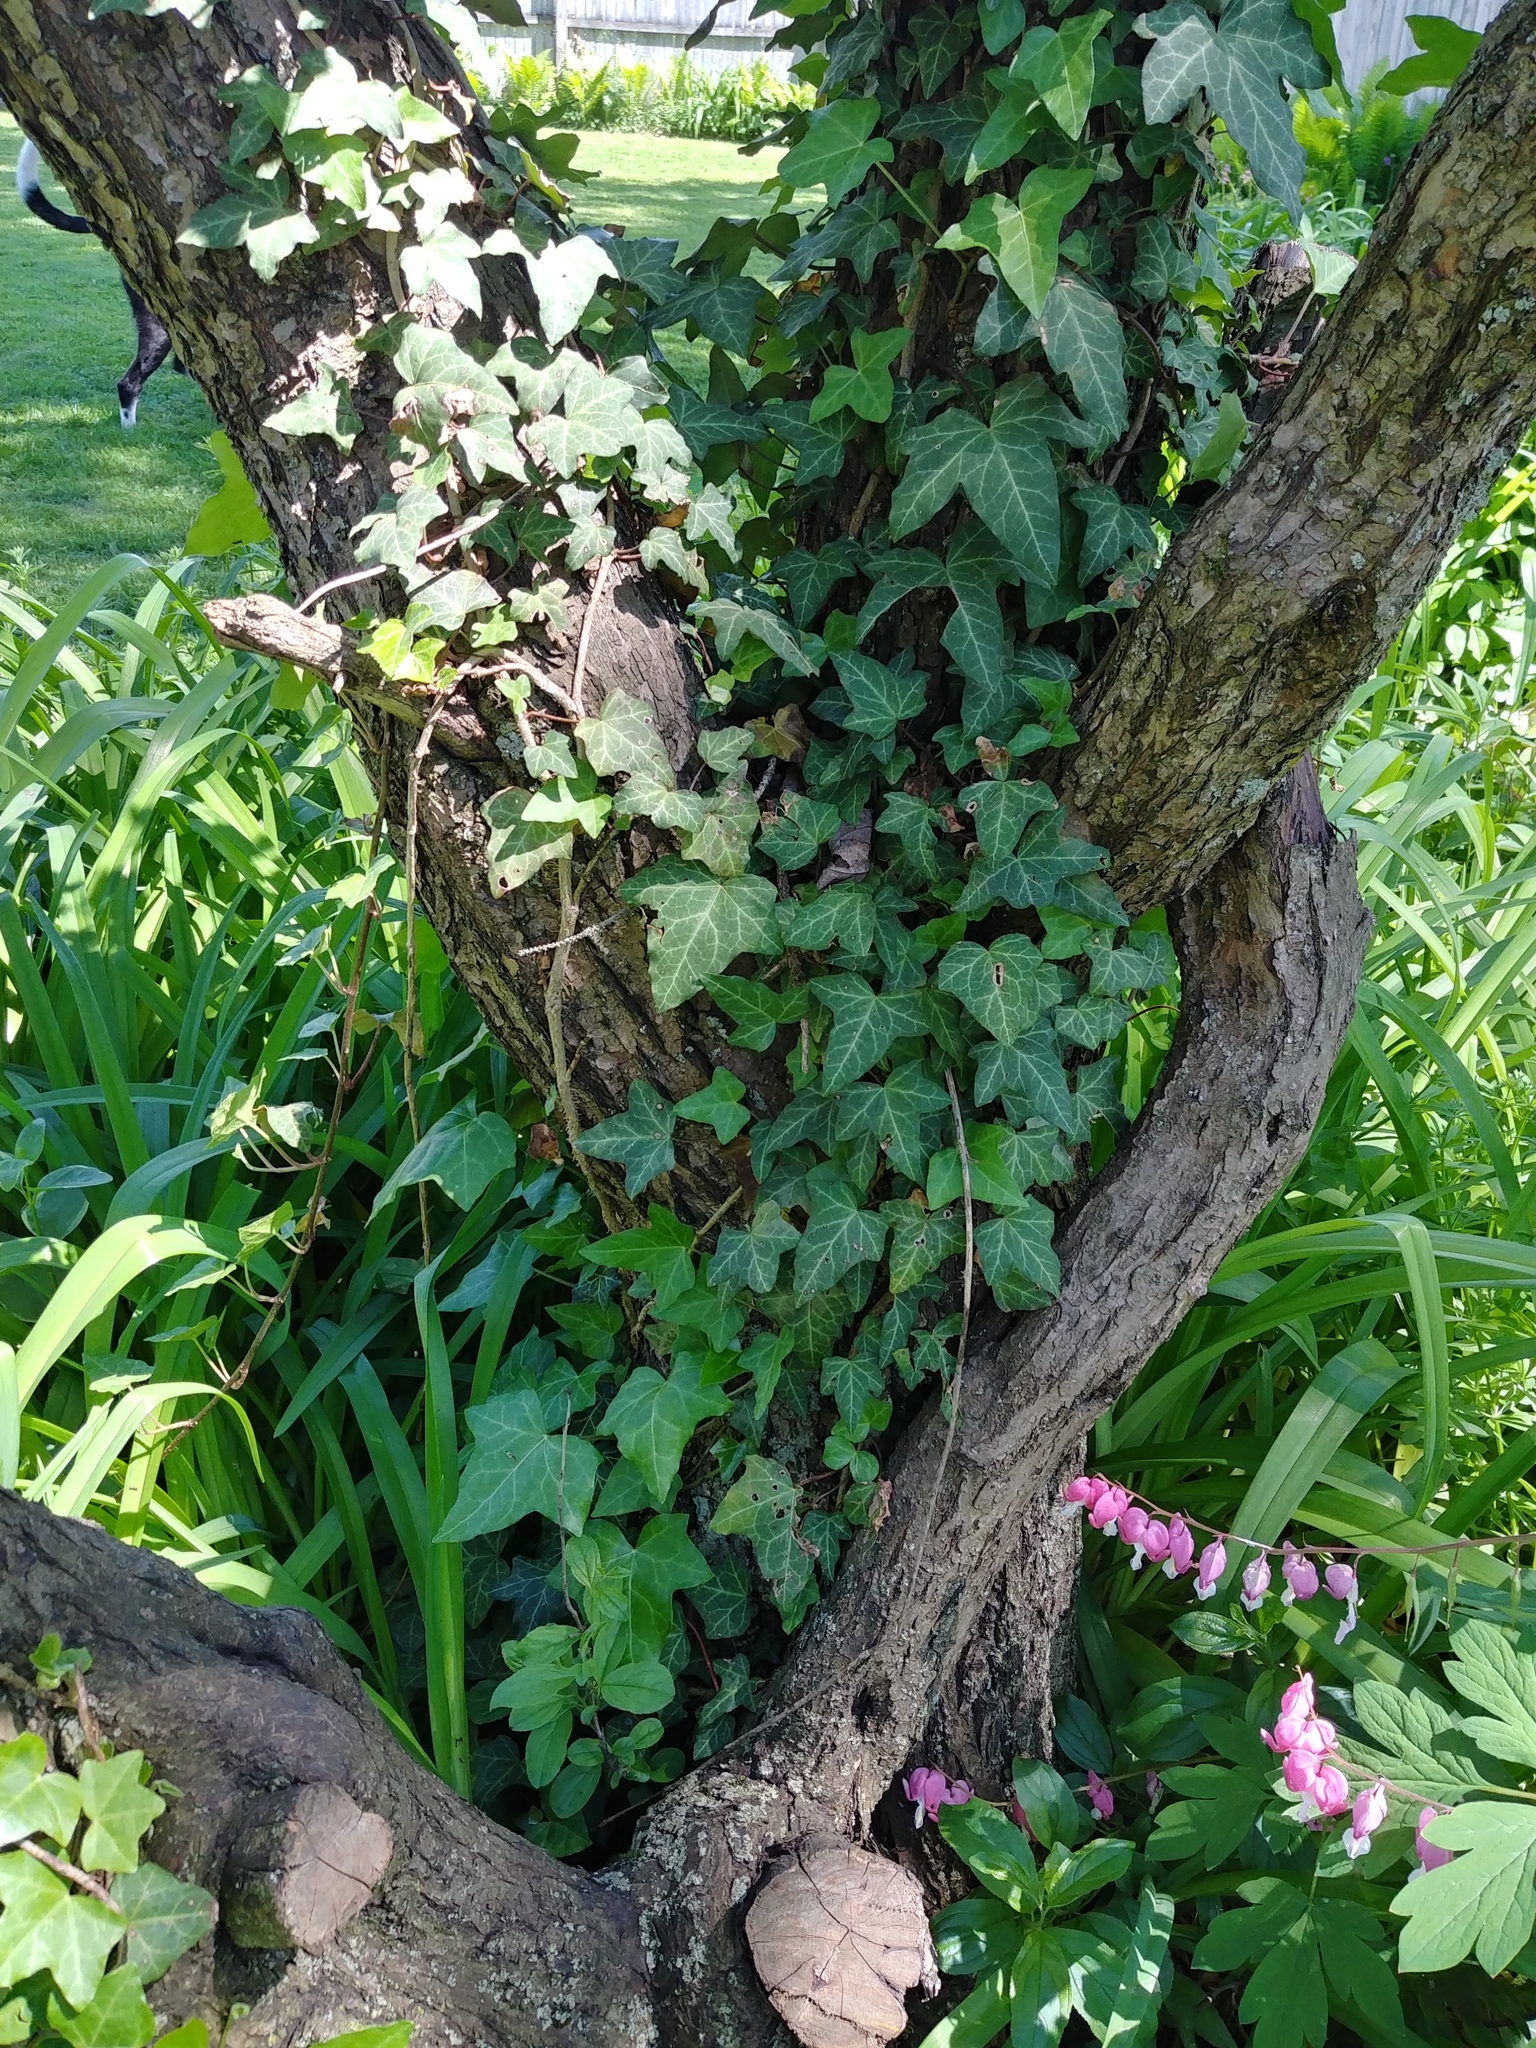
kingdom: Plantae
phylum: Tracheophyta
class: Magnoliopsida
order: Apiales
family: Araliaceae
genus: Hedera
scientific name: Hedera helix
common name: Ivy
